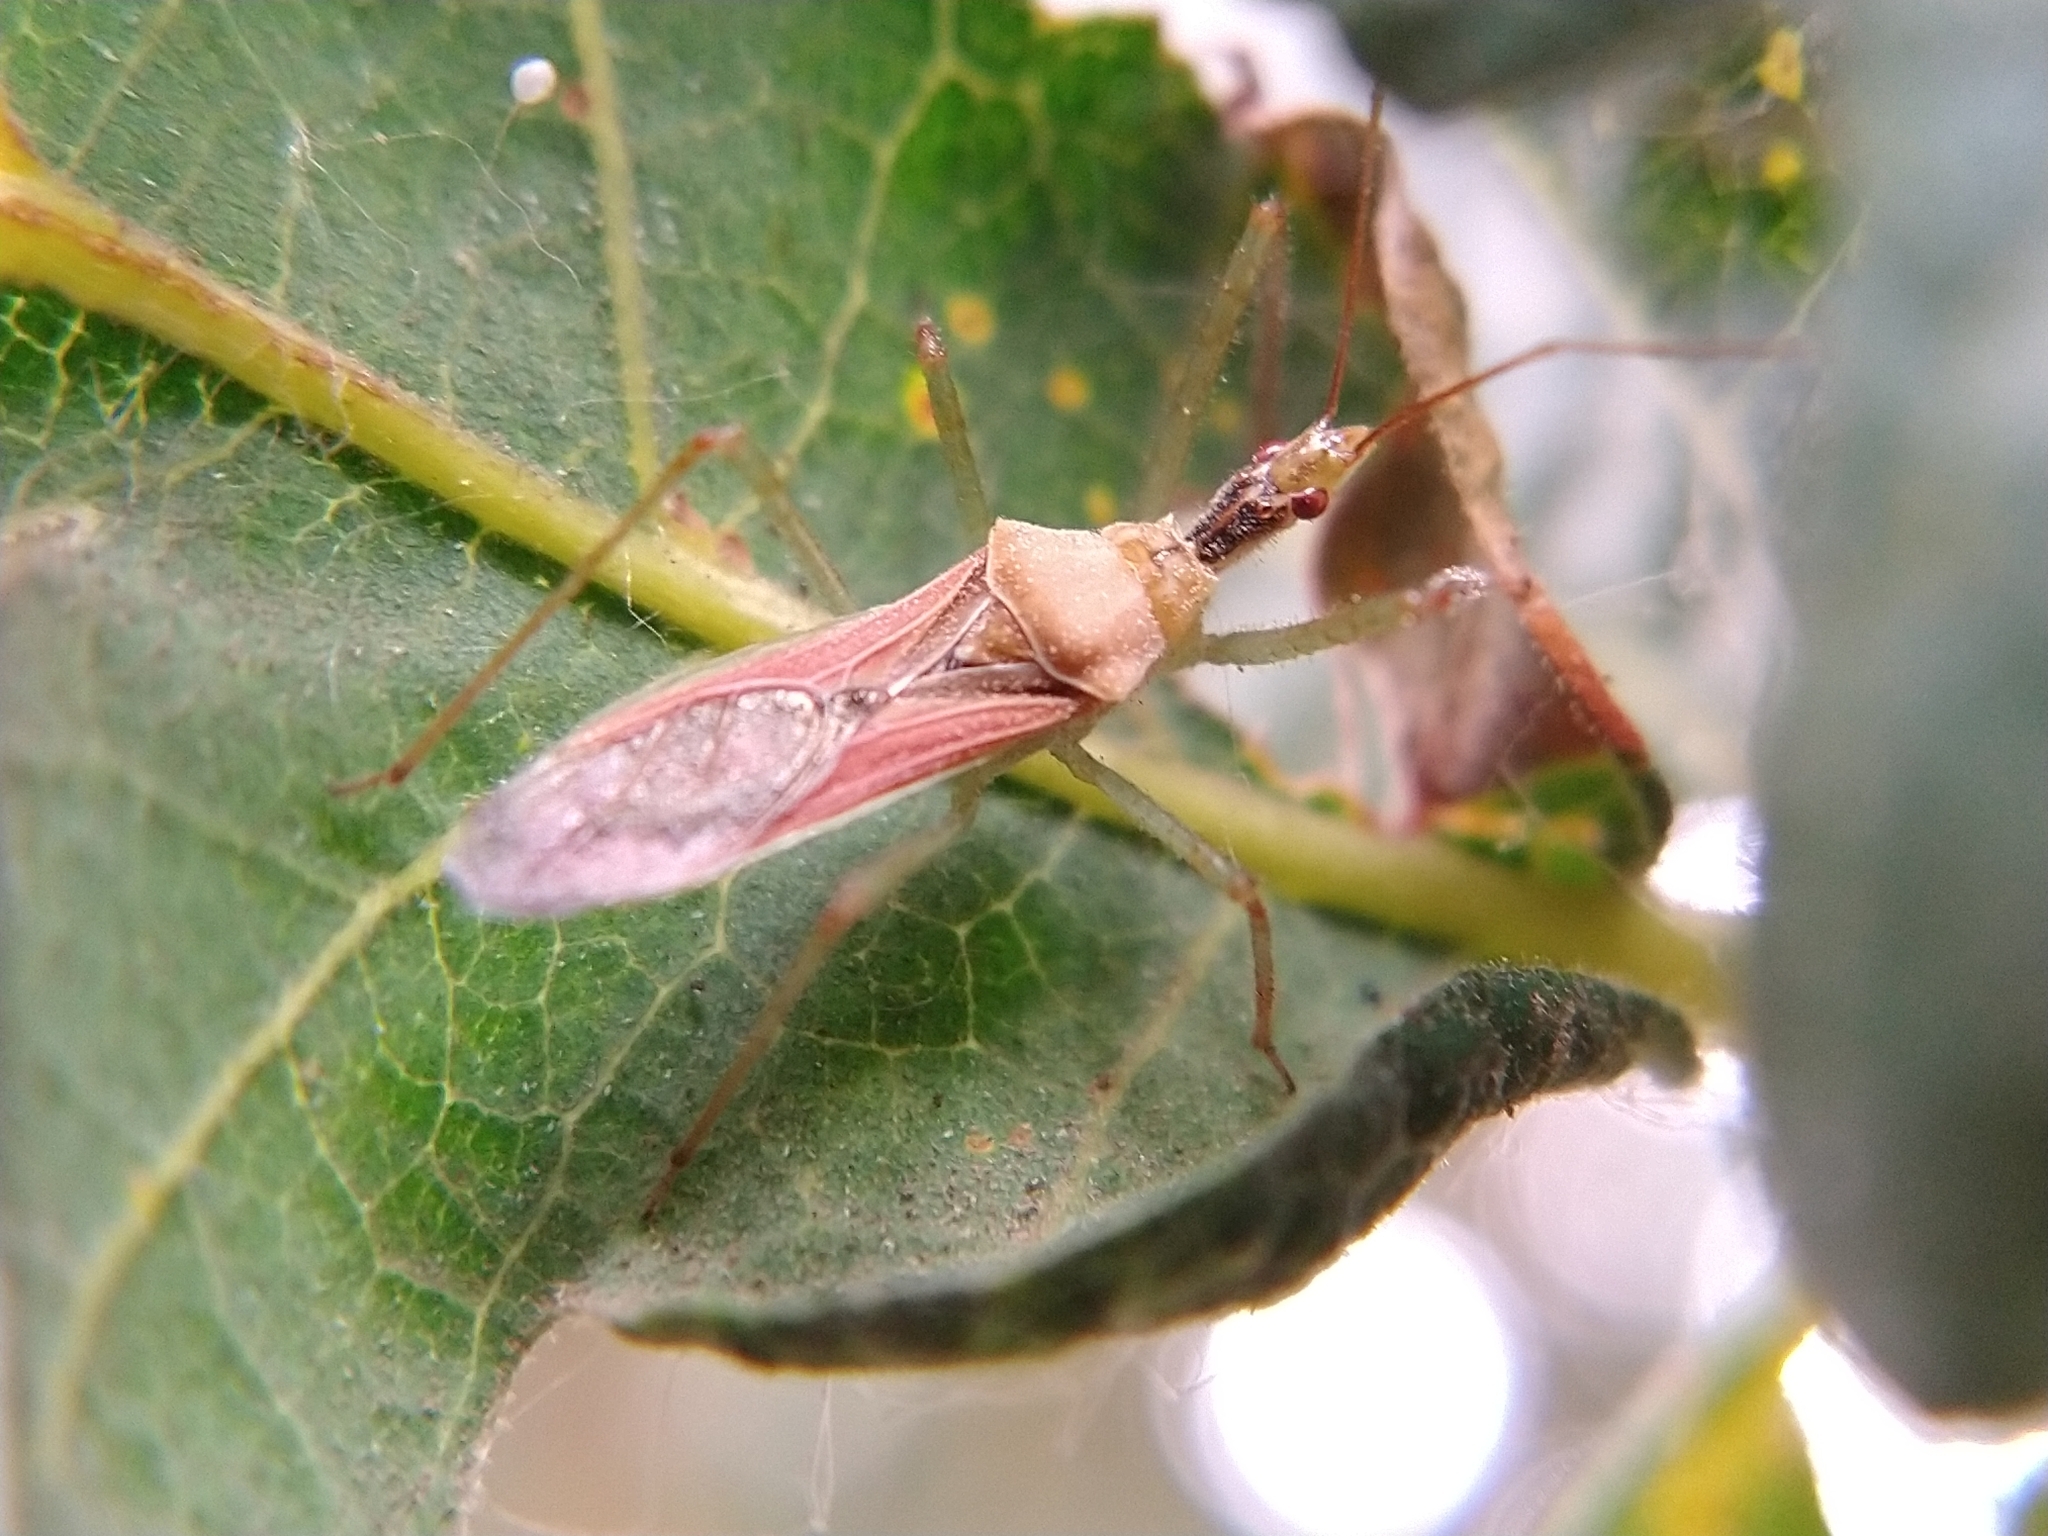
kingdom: Animalia
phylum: Arthropoda
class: Insecta
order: Hemiptera
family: Reduviidae
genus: Zelus
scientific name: Zelus renardii
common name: Assassin bug
